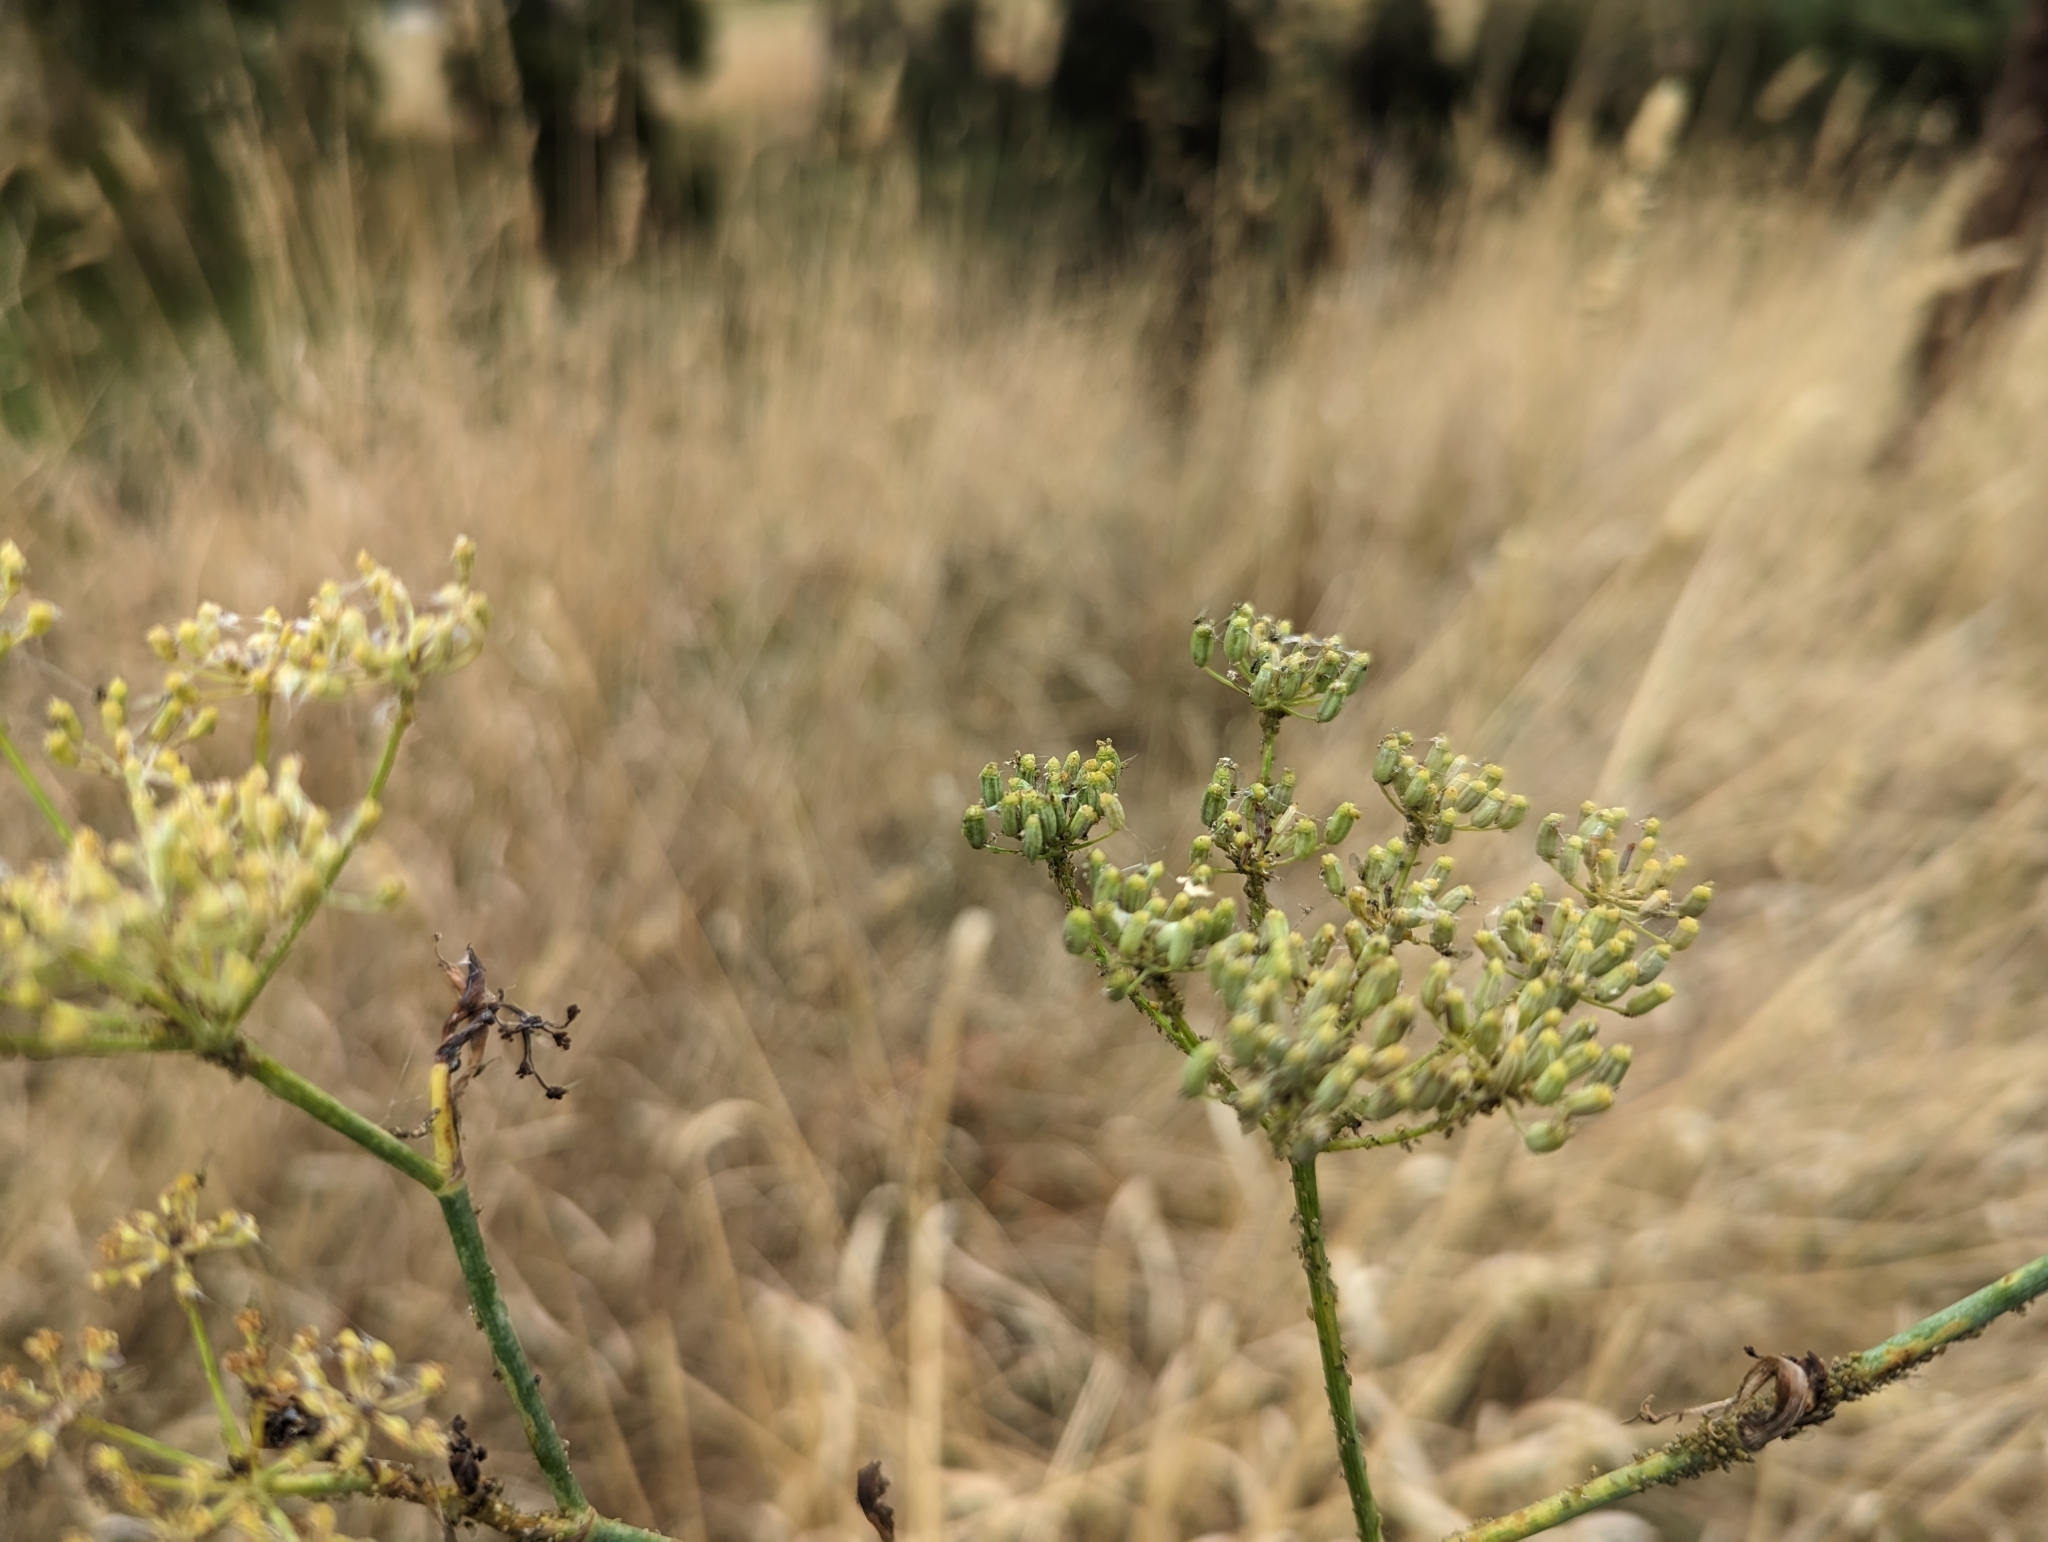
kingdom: Plantae
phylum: Tracheophyta
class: Magnoliopsida
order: Apiales
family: Apiaceae
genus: Foeniculum
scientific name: Foeniculum vulgare
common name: Fennel
